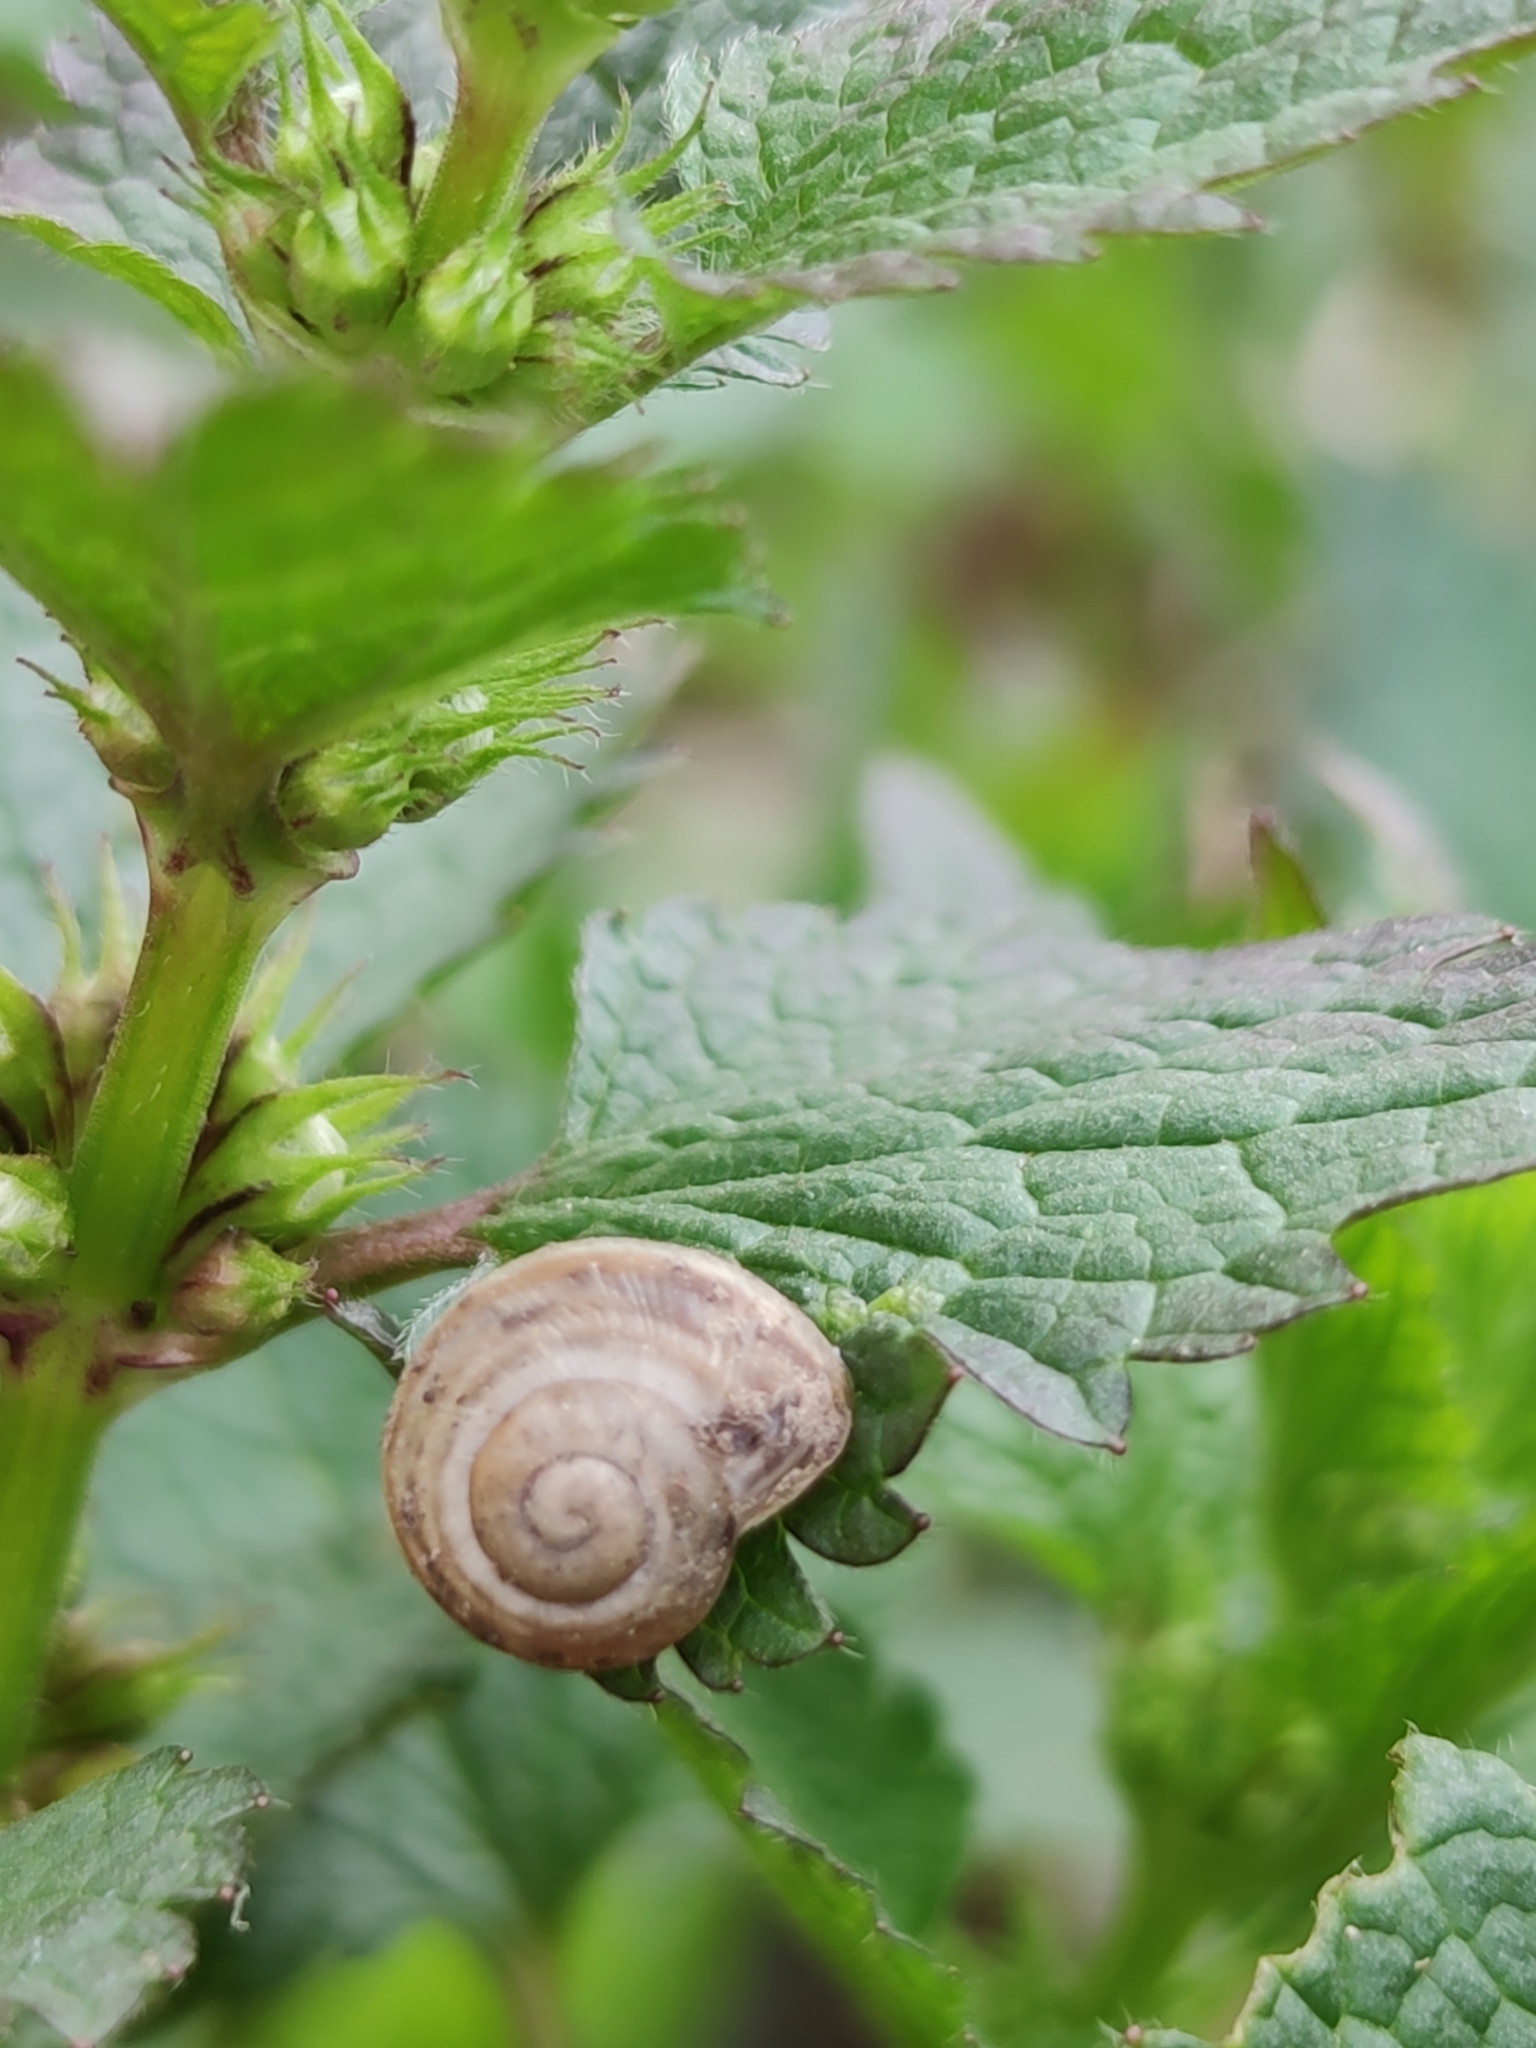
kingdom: Animalia
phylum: Mollusca
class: Gastropoda
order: Stylommatophora
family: Helicidae
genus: Caucasotachea
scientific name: Caucasotachea vindobonensis
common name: European helicid land snail
